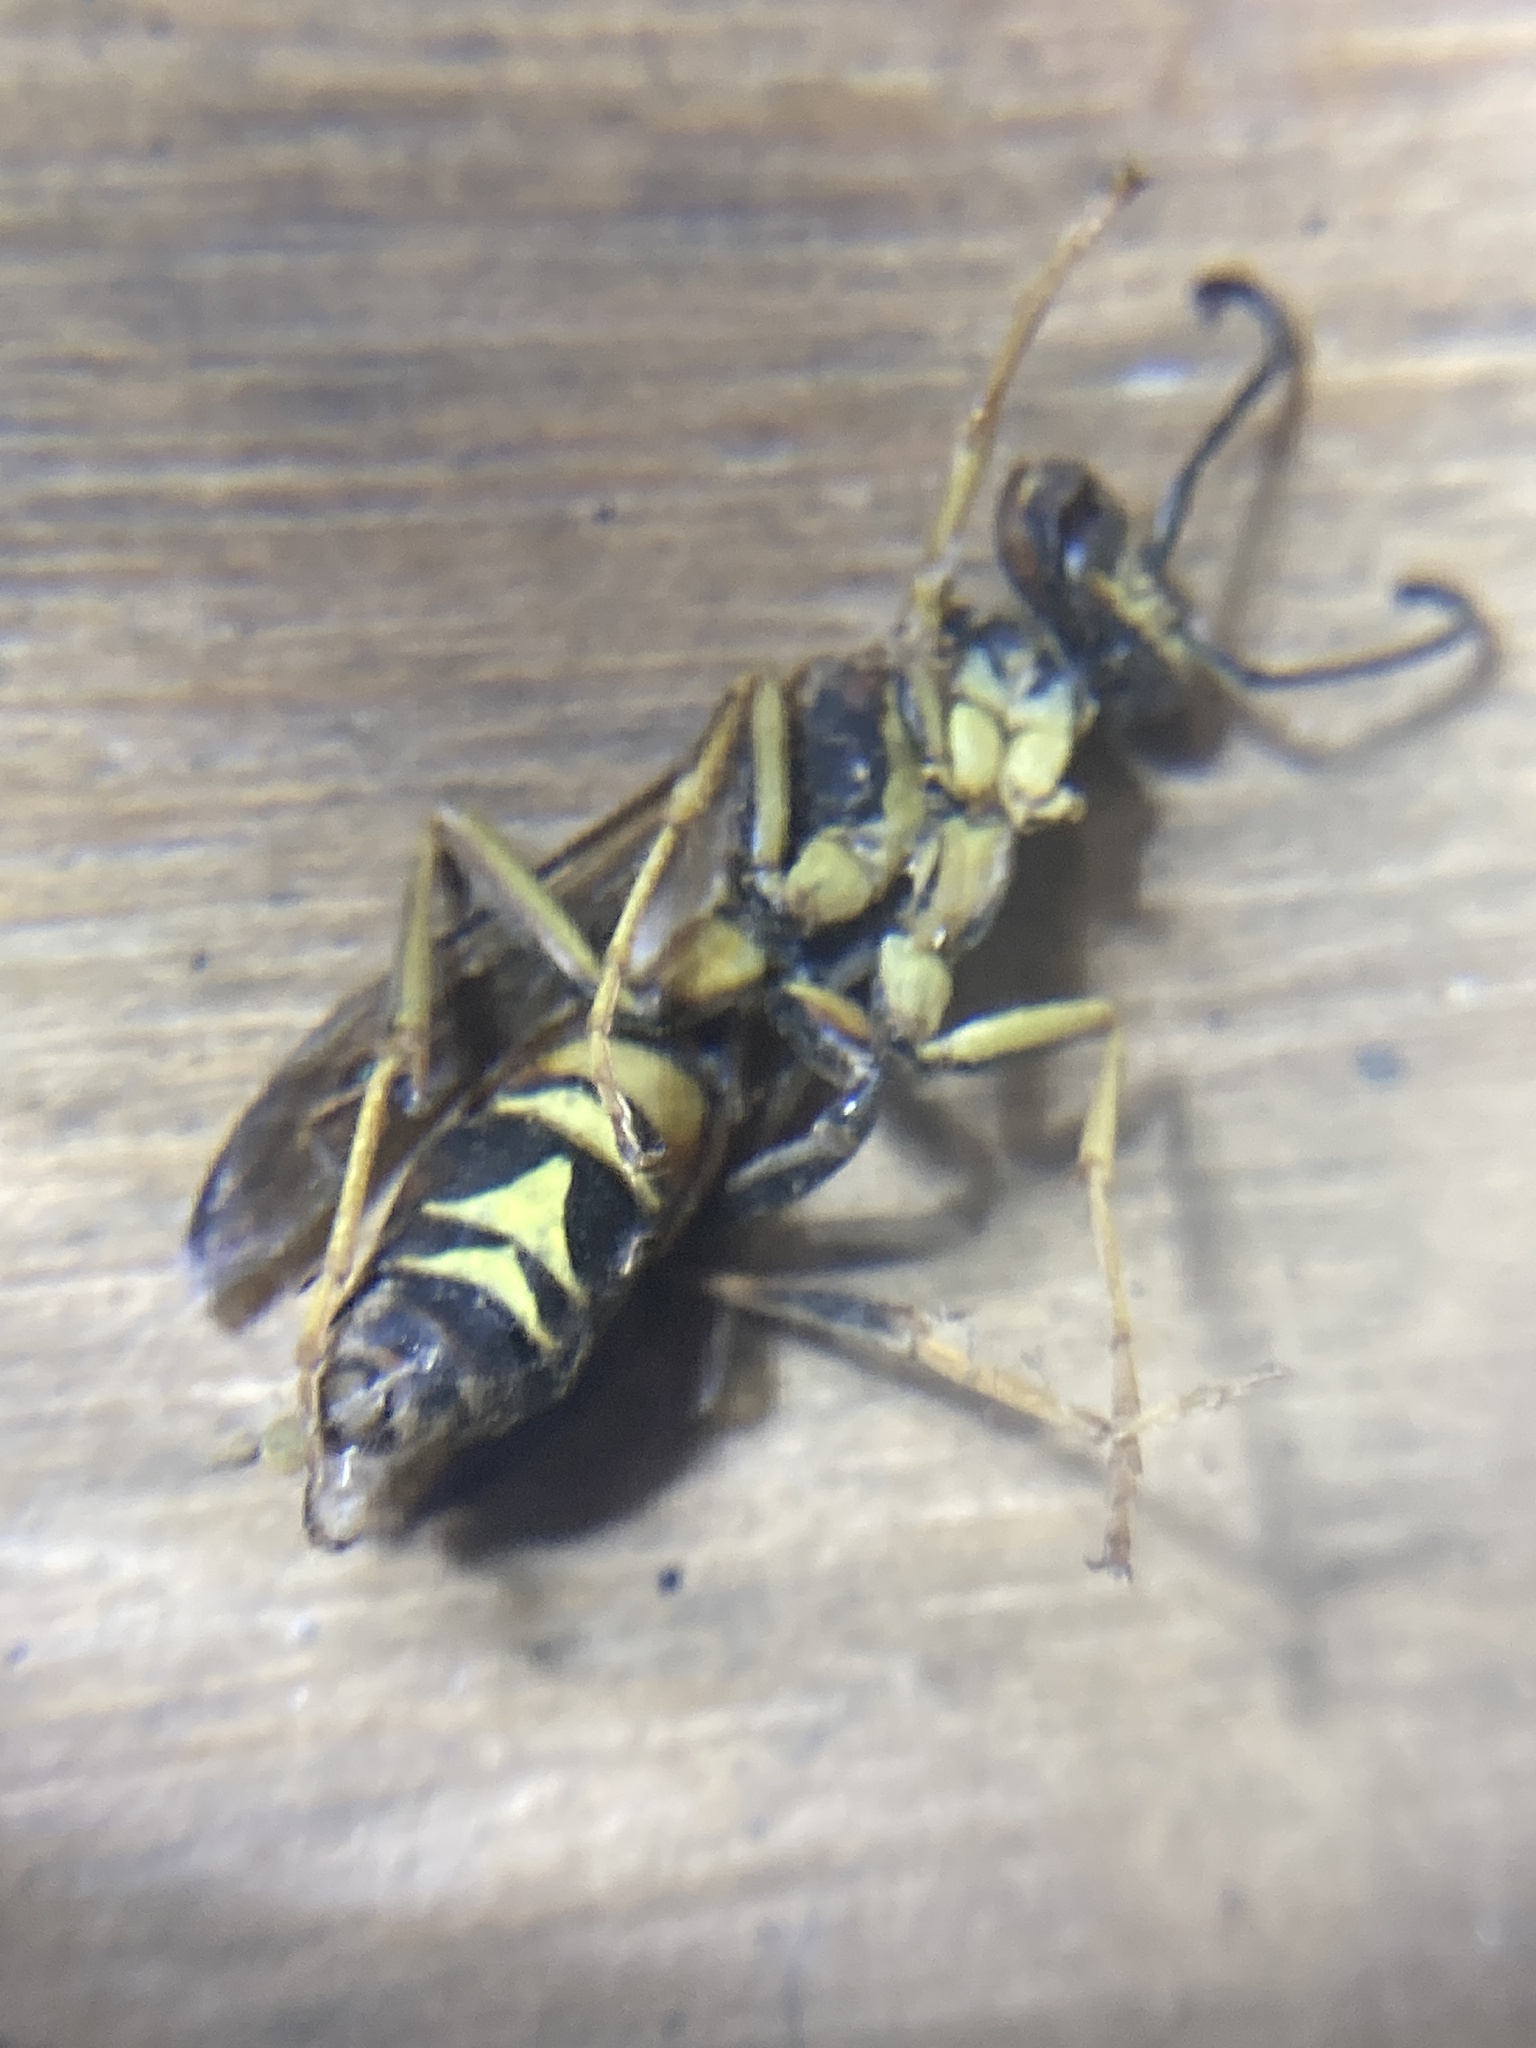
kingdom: Animalia
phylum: Arthropoda
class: Insecta
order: Hymenoptera
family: Eumenidae
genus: Polistes
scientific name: Polistes fuscatus
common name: Dark paper wasp
